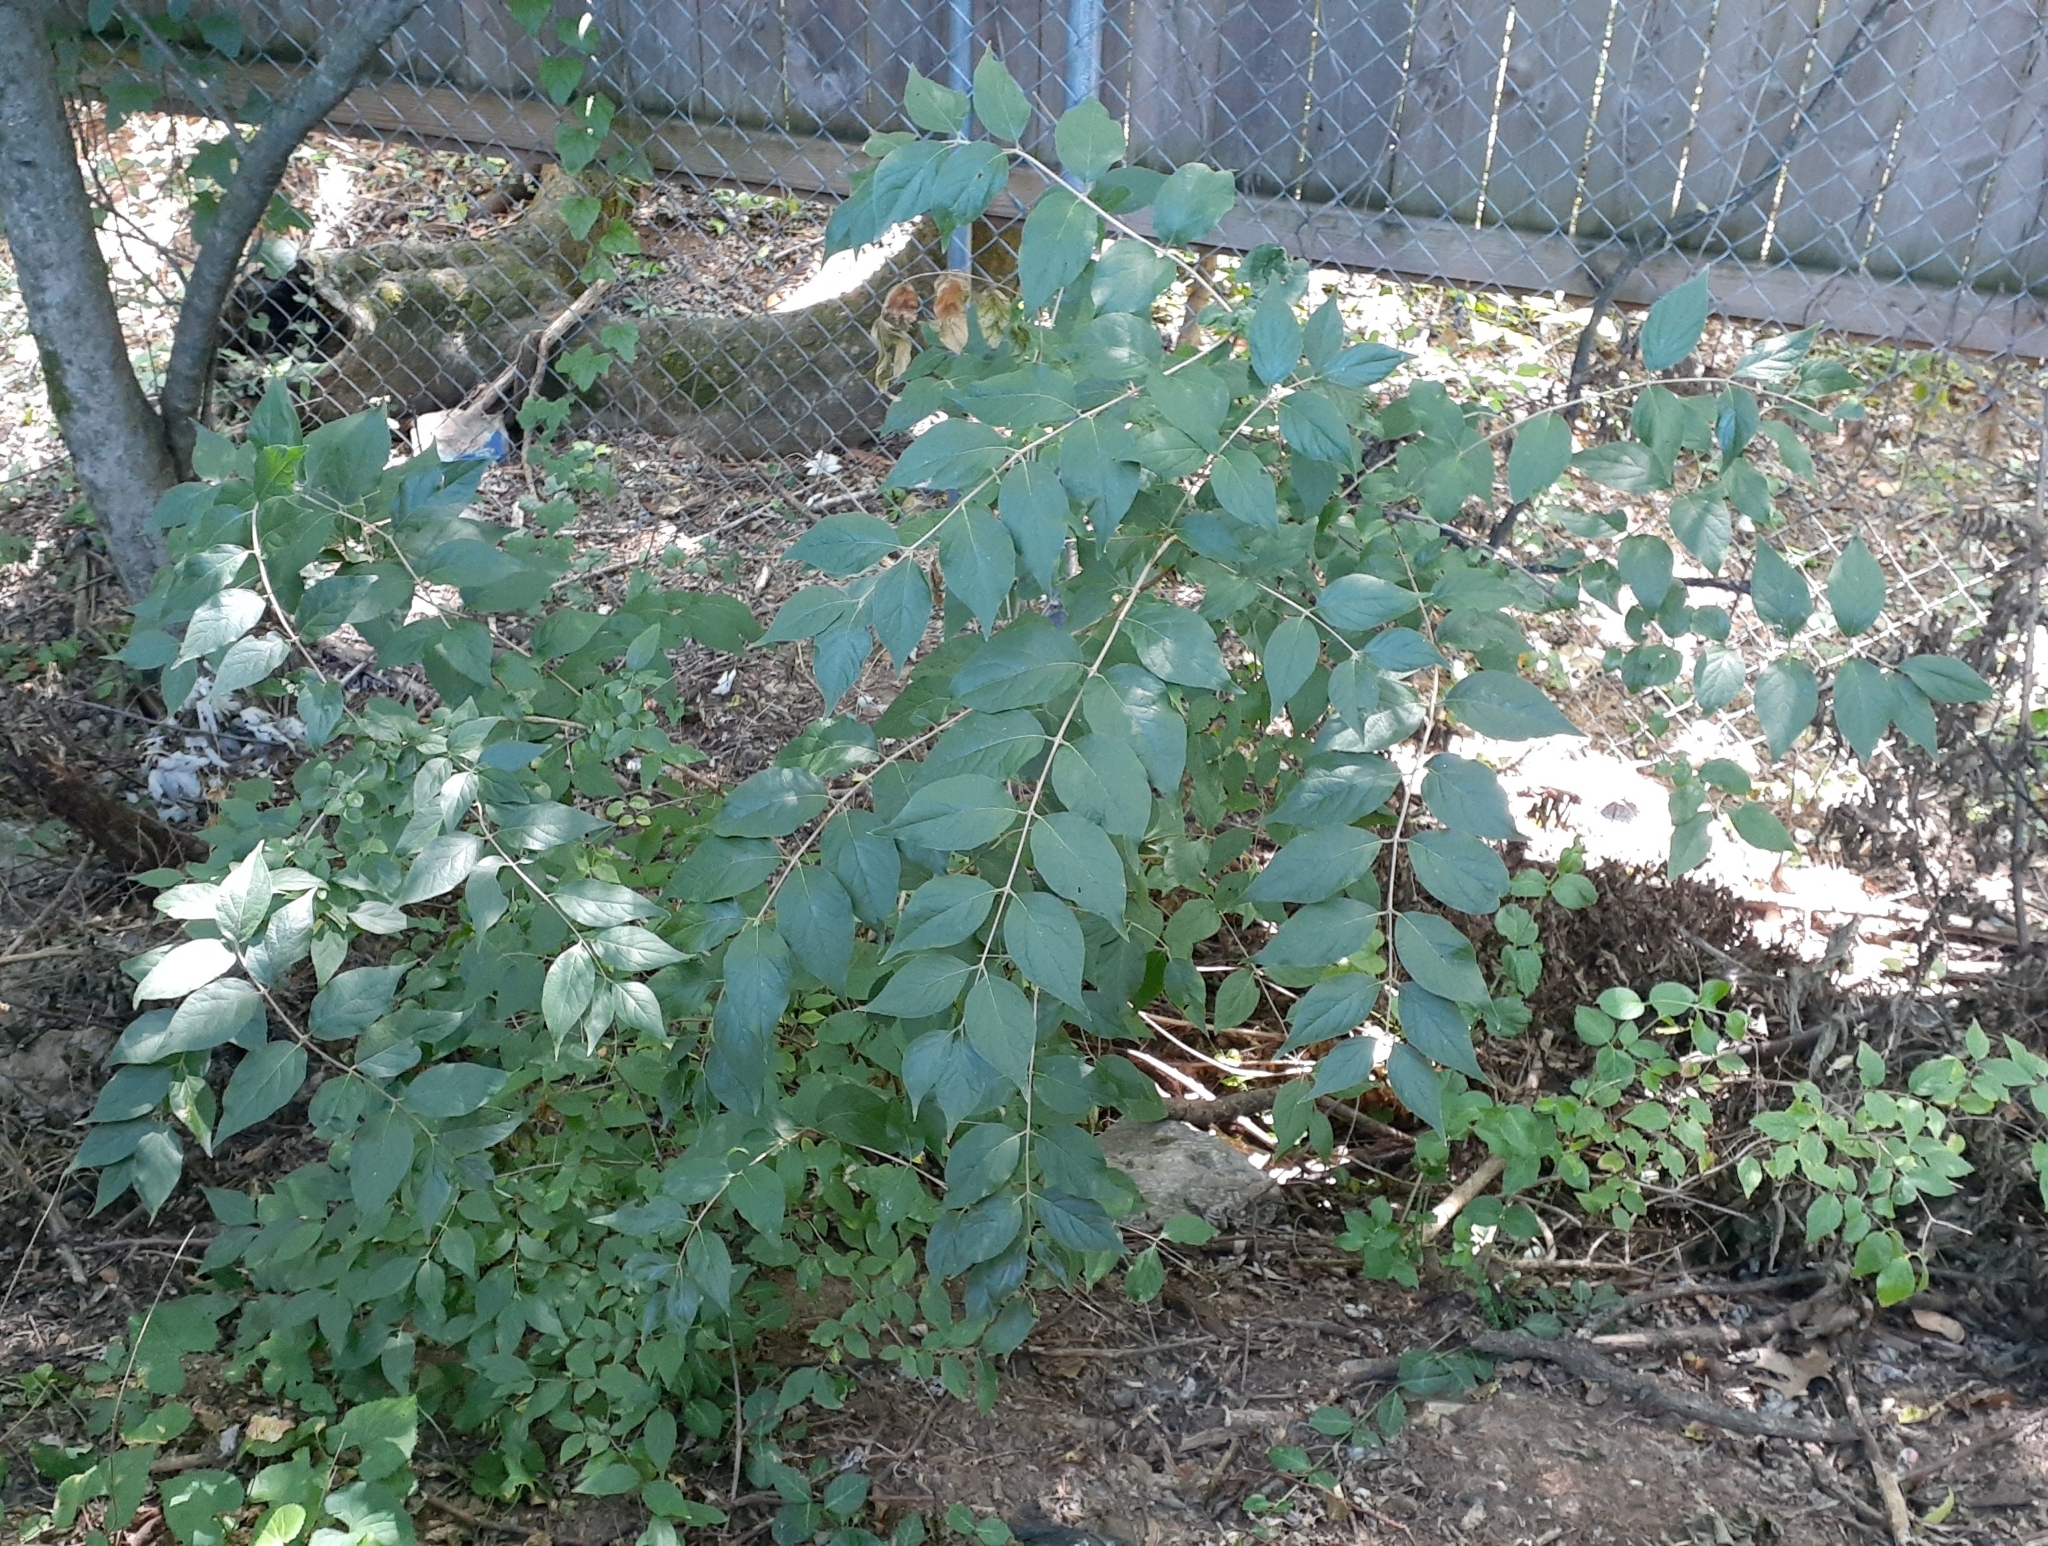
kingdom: Plantae
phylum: Tracheophyta
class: Magnoliopsida
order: Dipsacales
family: Caprifoliaceae
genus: Lonicera
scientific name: Lonicera maackii
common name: Amur honeysuckle
